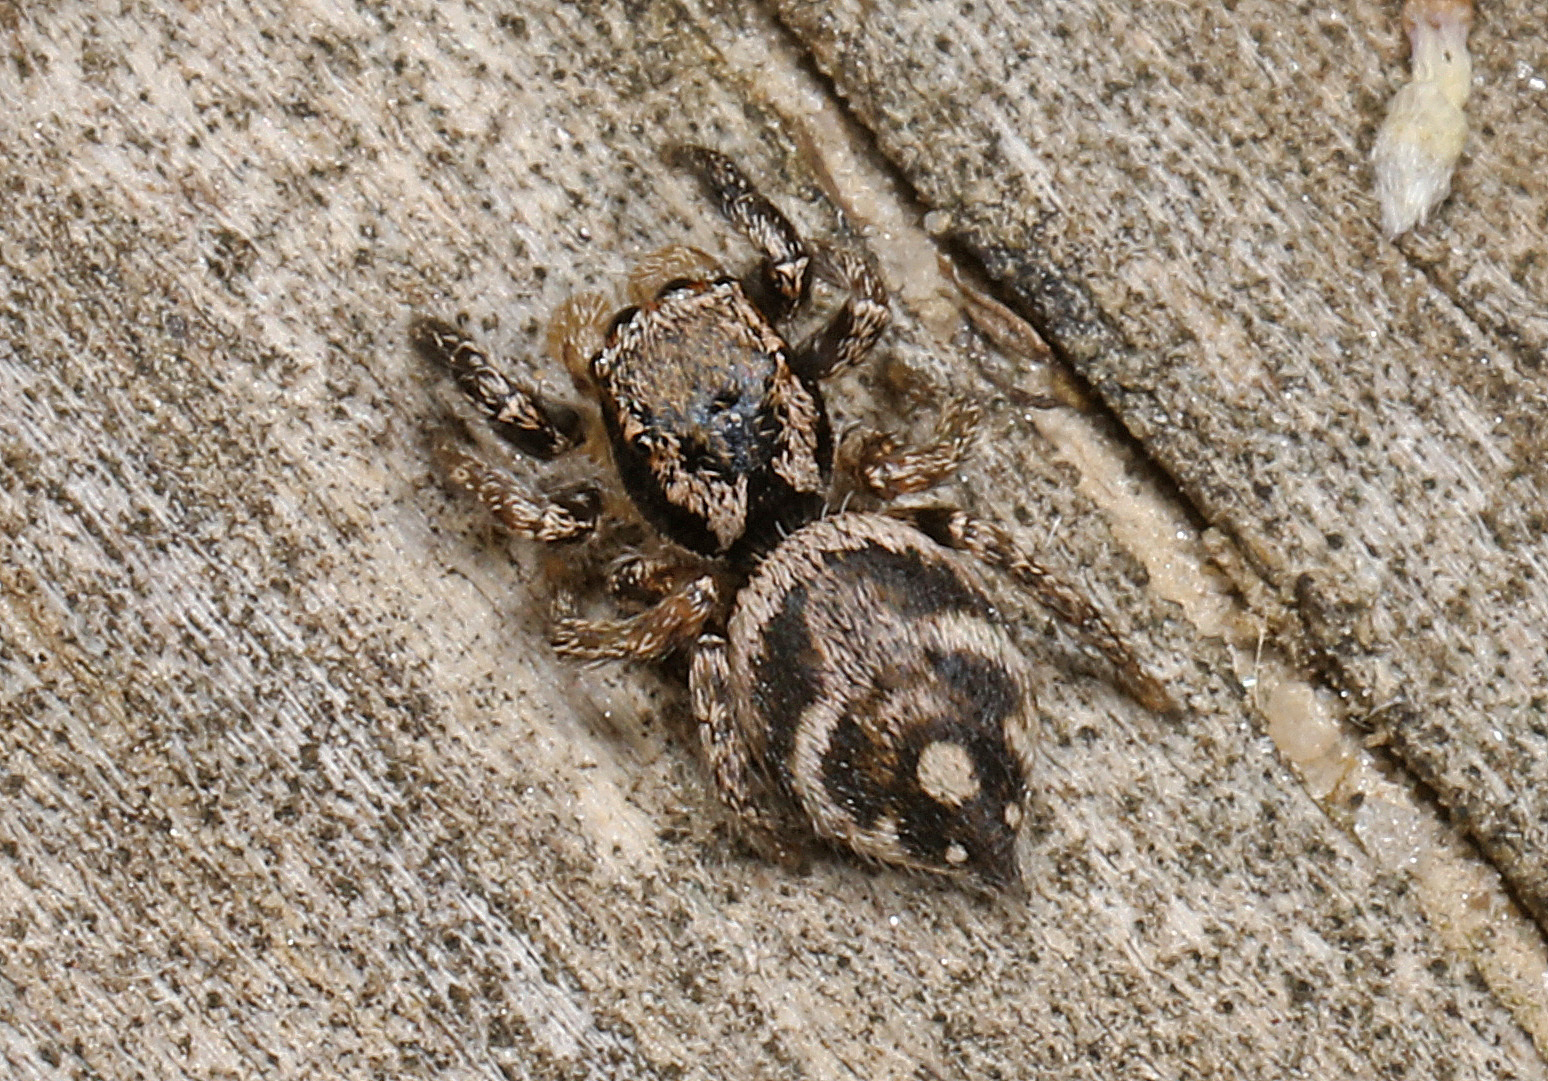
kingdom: Animalia
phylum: Arthropoda
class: Arachnida
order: Araneae
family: Salticidae
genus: Habronattus
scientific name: Habronattus coecatus
